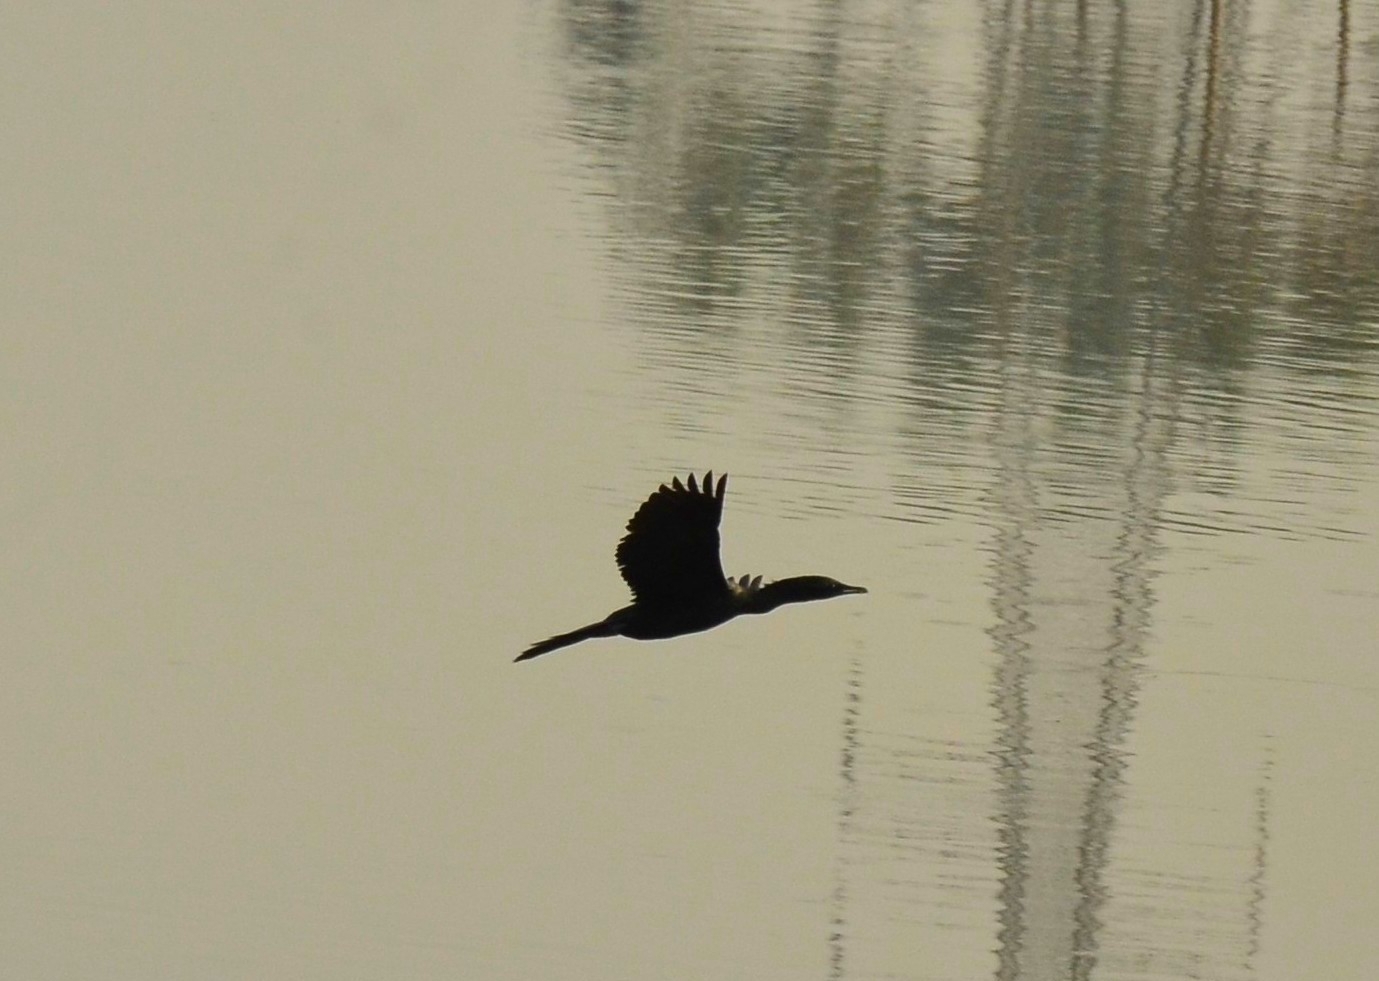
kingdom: Animalia
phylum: Chordata
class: Aves
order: Suliformes
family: Phalacrocoracidae
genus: Microcarbo
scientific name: Microcarbo niger
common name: Little cormorant
